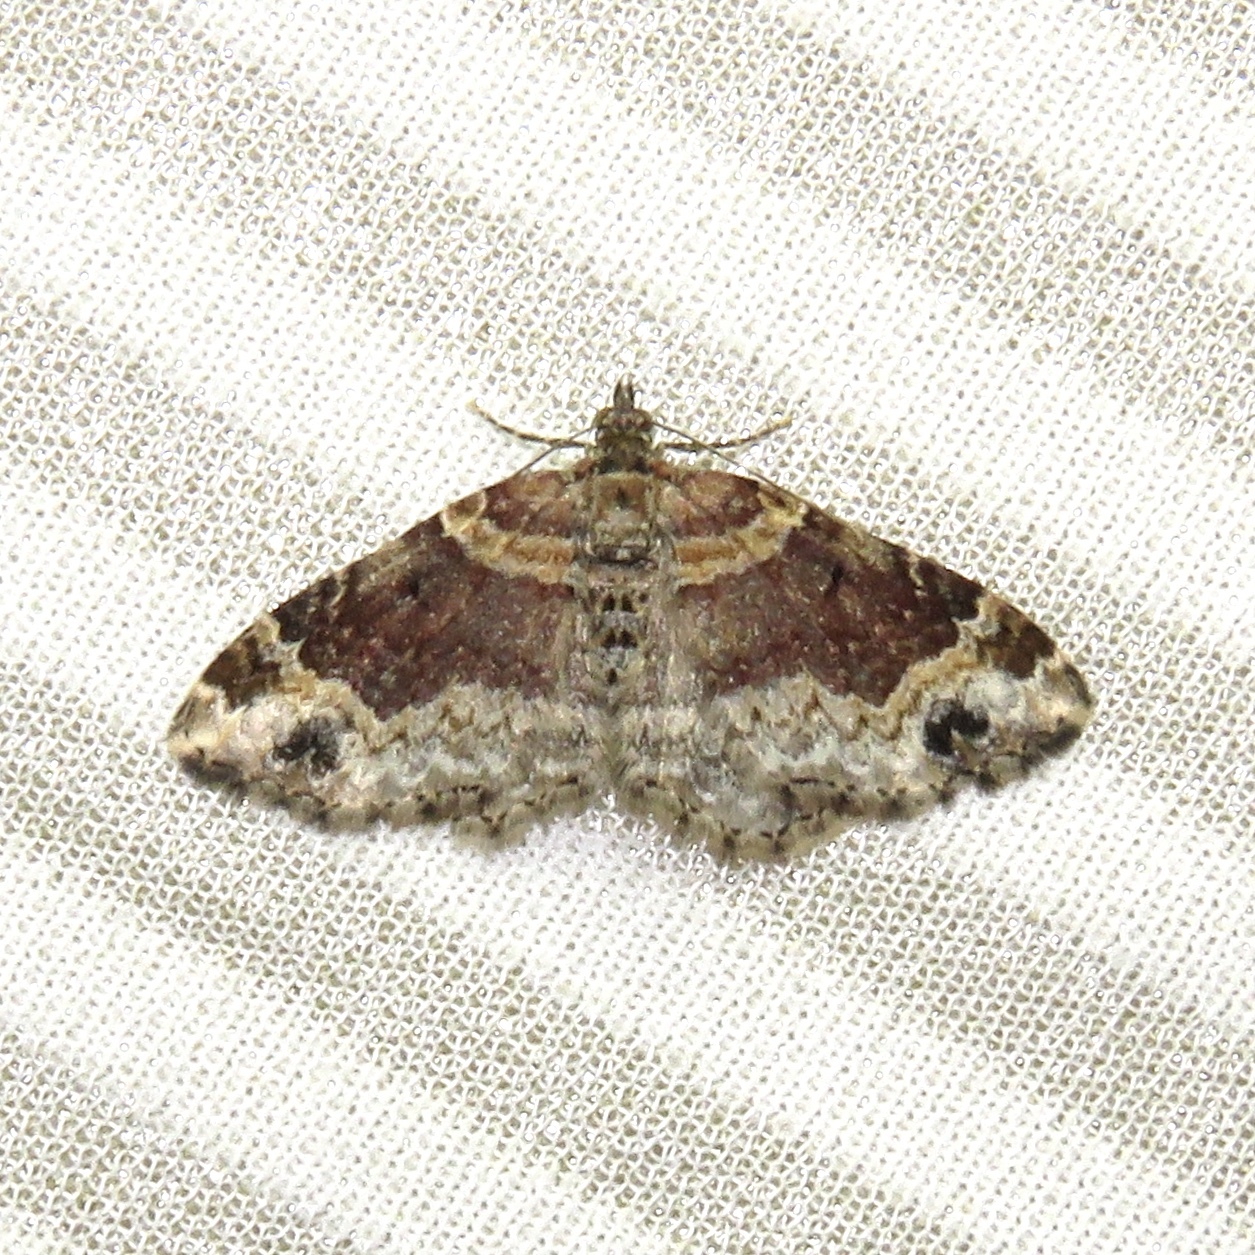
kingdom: Animalia
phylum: Arthropoda
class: Insecta
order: Lepidoptera
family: Geometridae
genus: Xanthorhoe
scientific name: Xanthorhoe ferrugata
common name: Dark-barred twin-spot carpet
